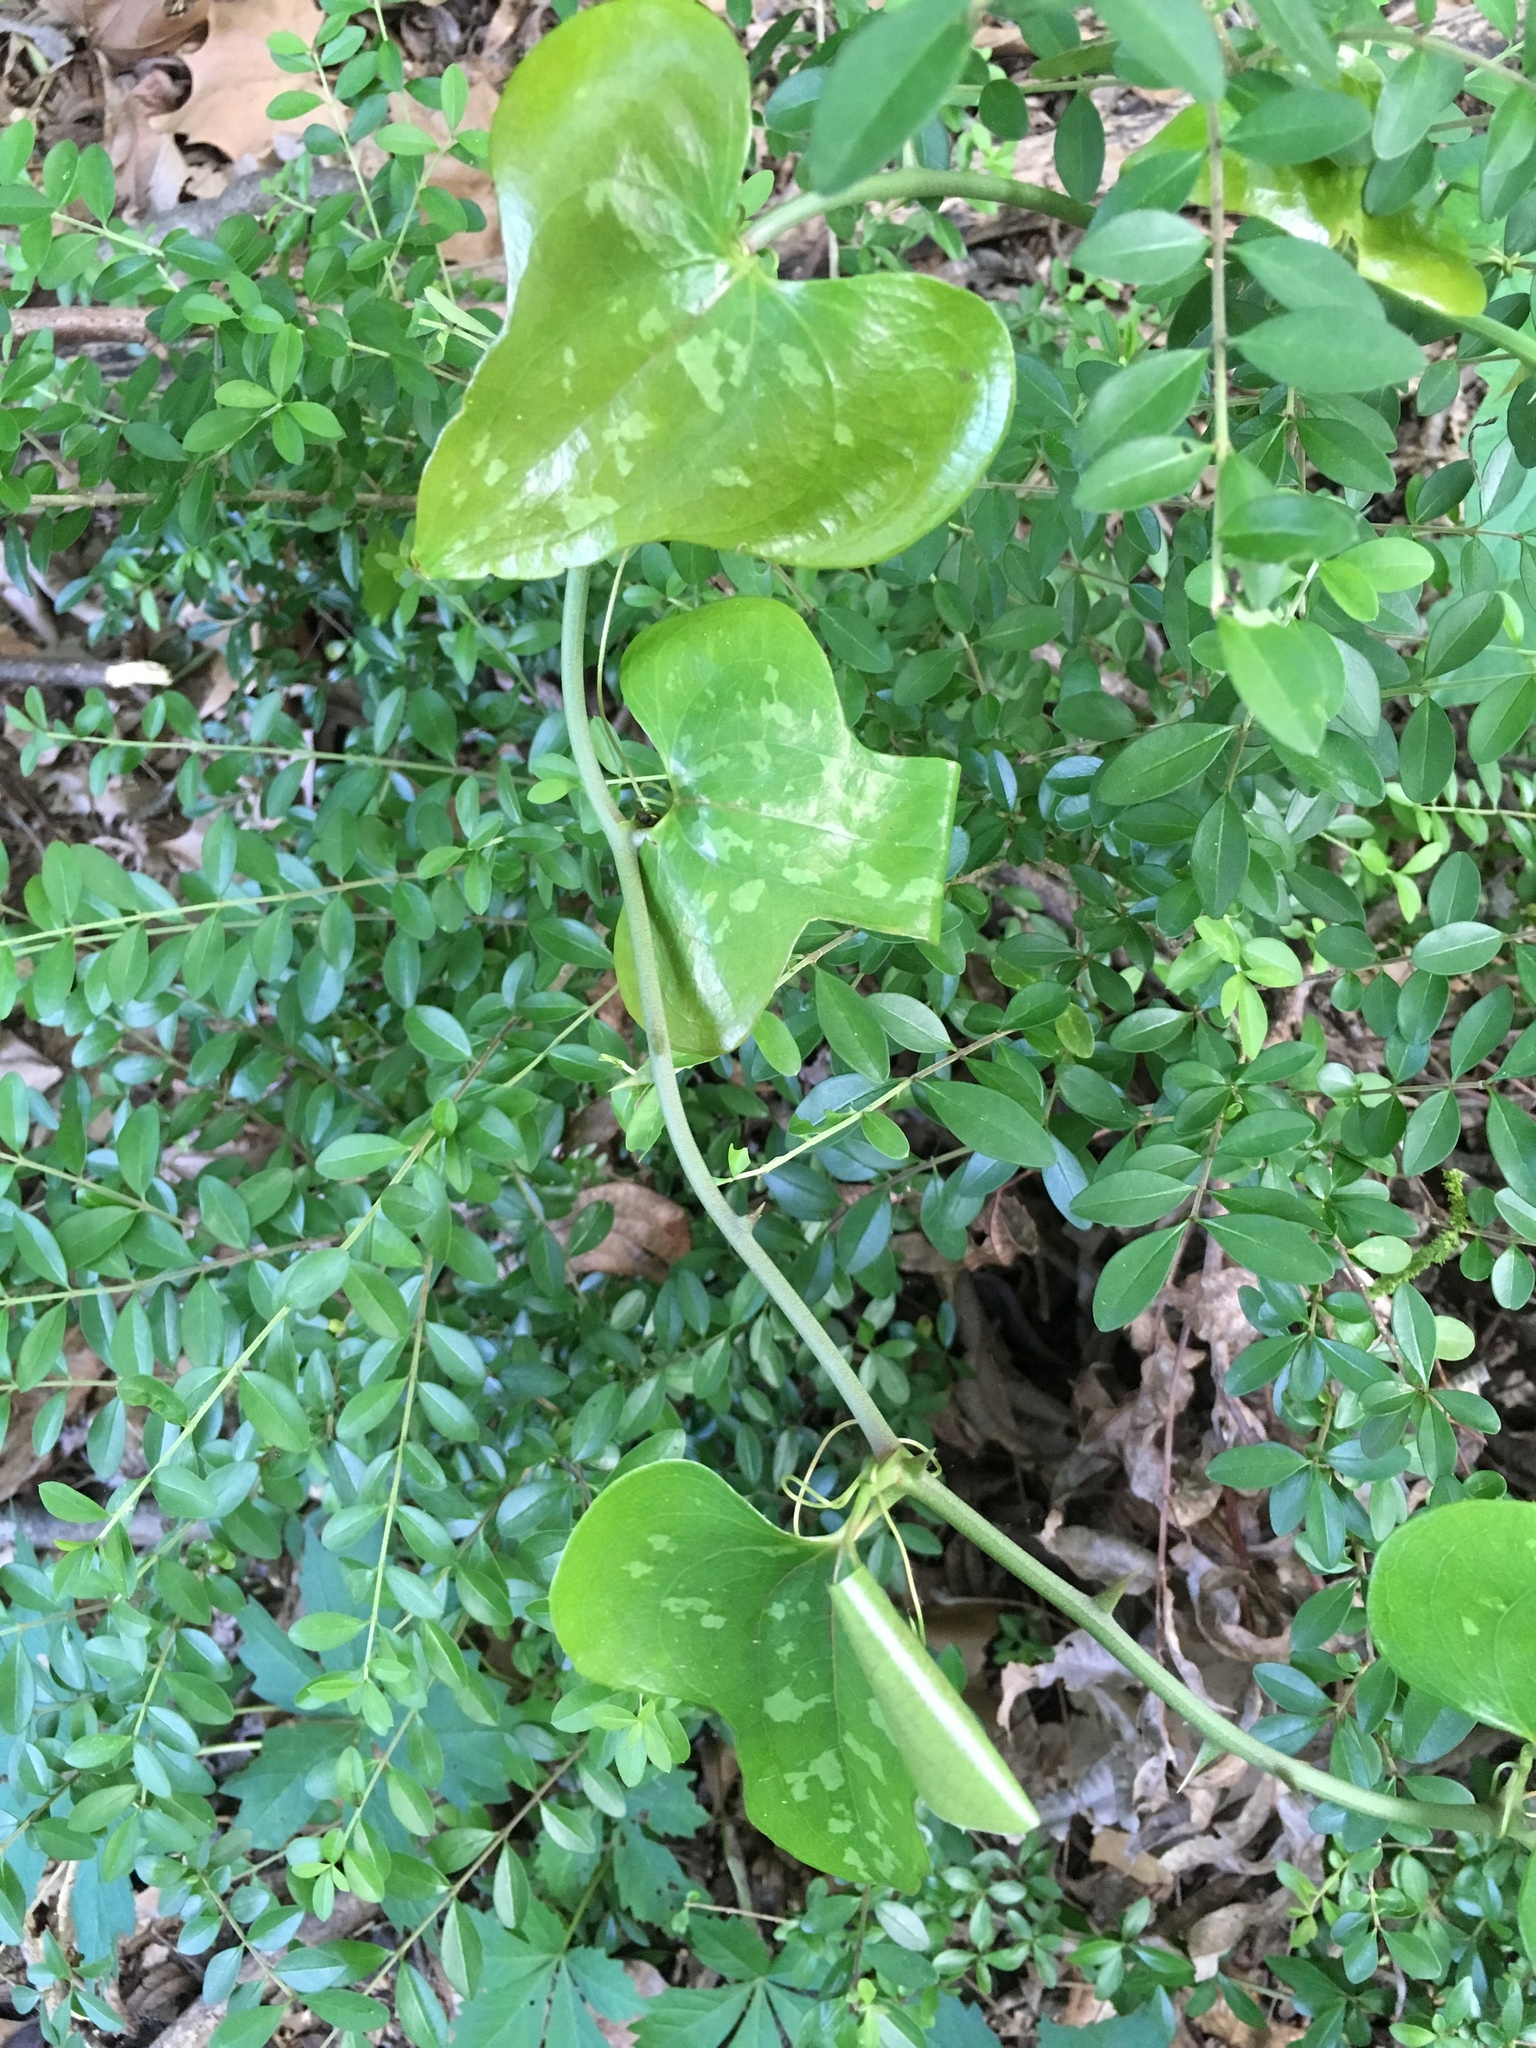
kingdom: Plantae
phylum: Tracheophyta
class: Liliopsida
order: Liliales
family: Smilacaceae
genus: Smilax
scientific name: Smilax bona-nox
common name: Catbrier
